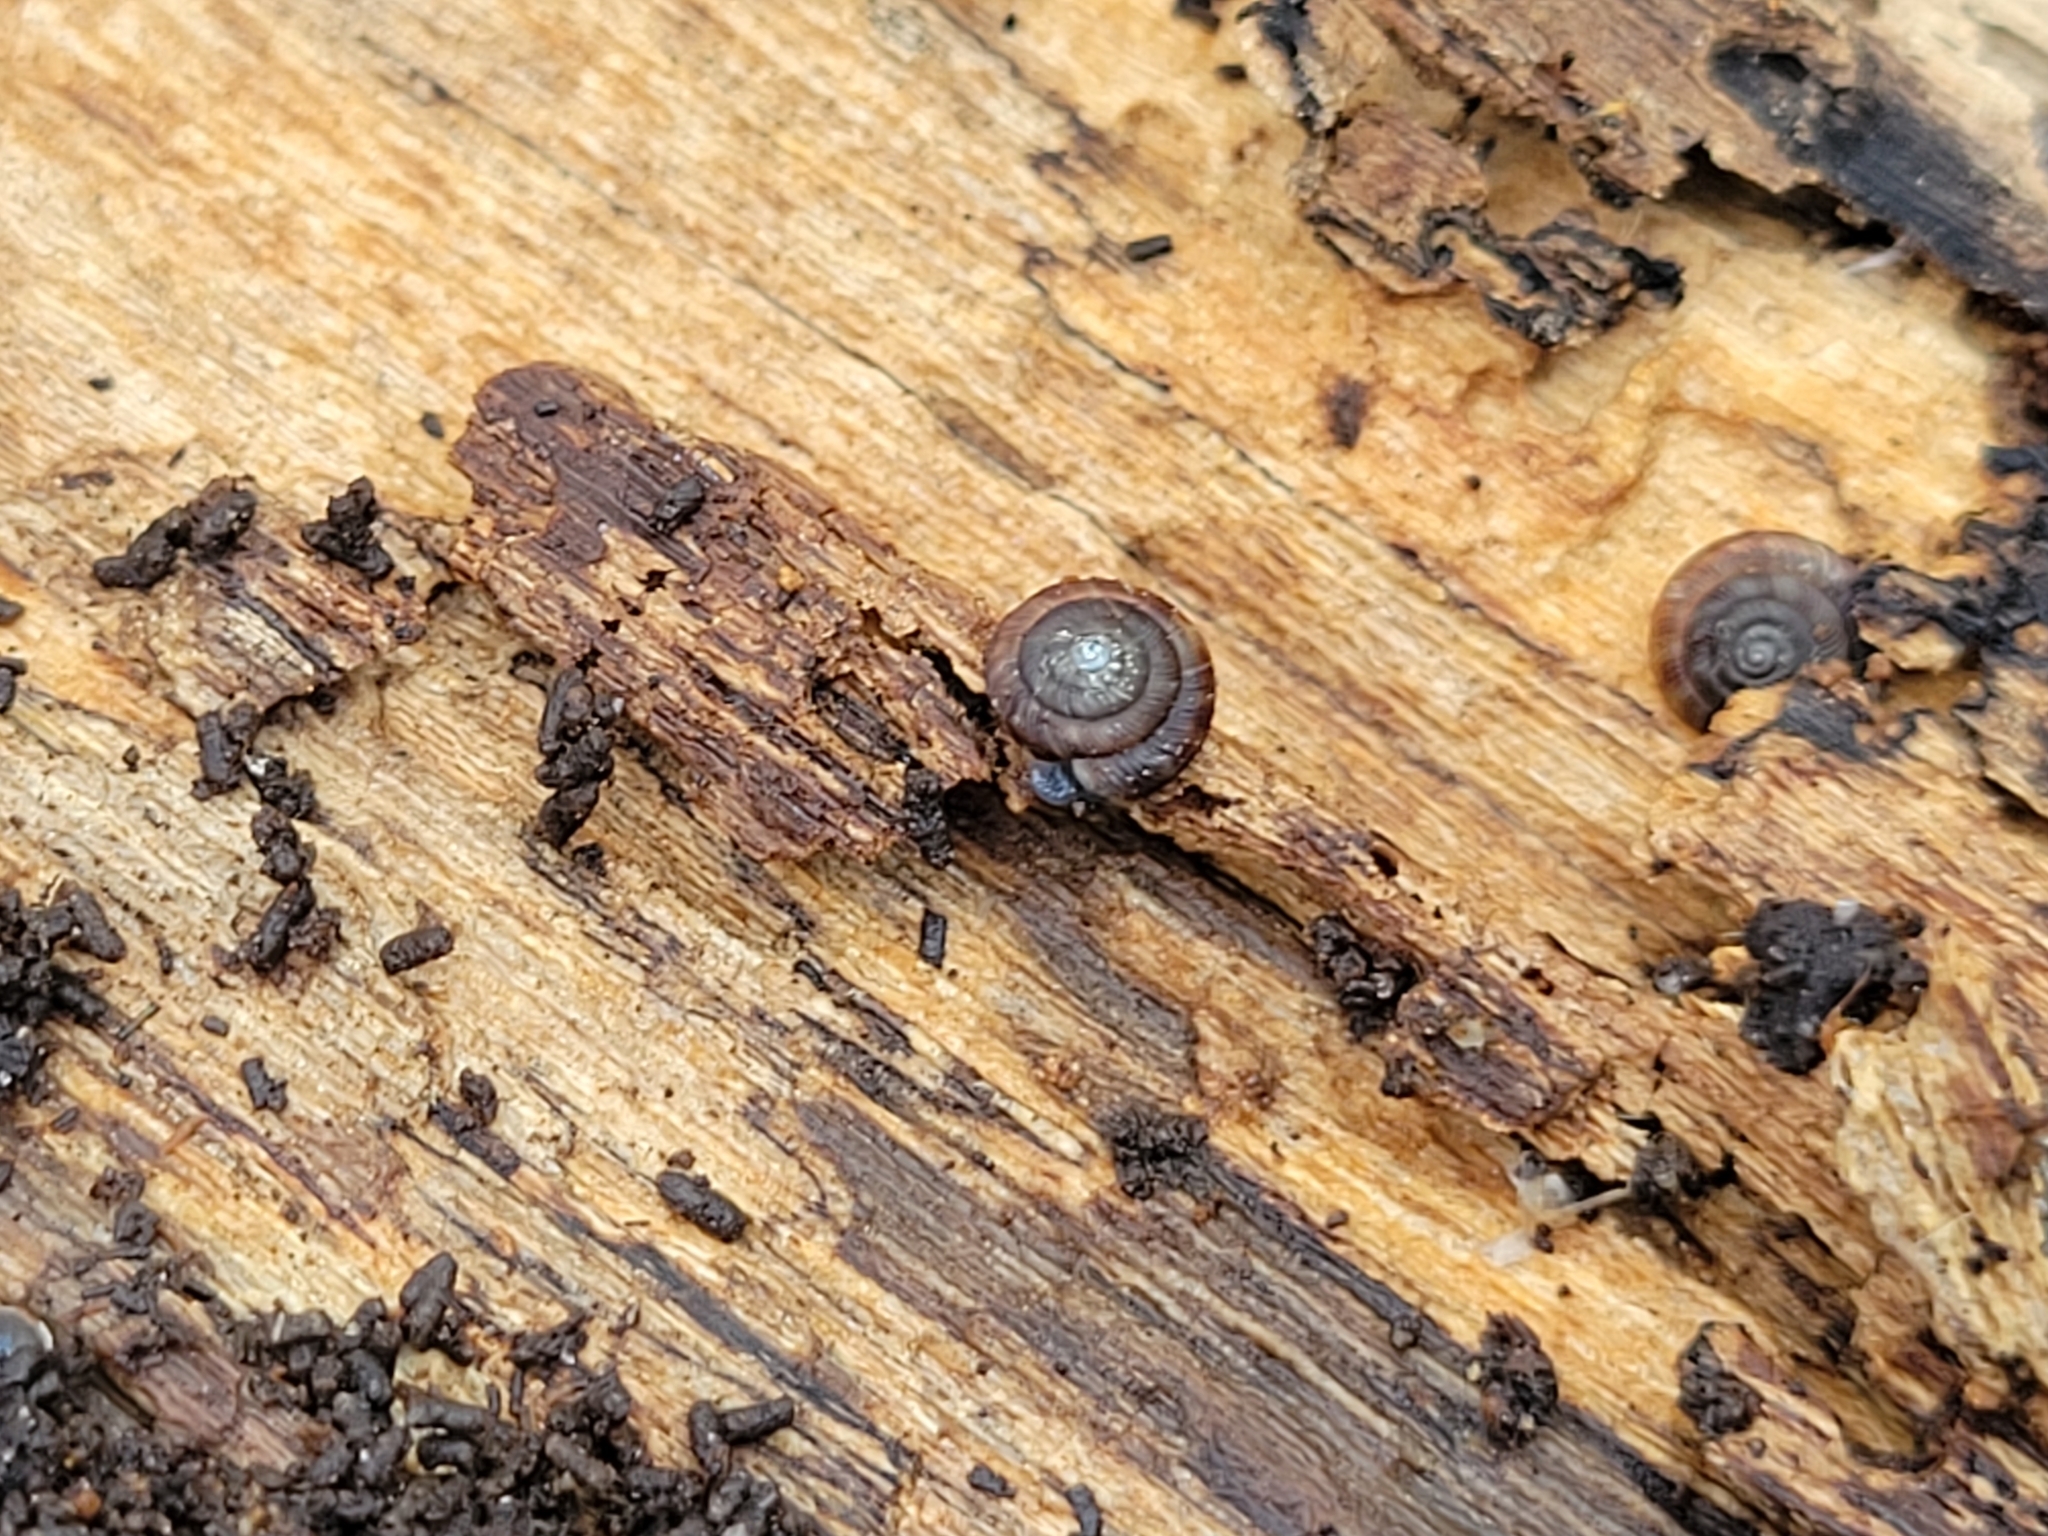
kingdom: Animalia
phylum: Mollusca
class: Gastropoda
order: Stylommatophora
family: Discidae
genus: Discus
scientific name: Discus rotundatus
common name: Rounded snail
